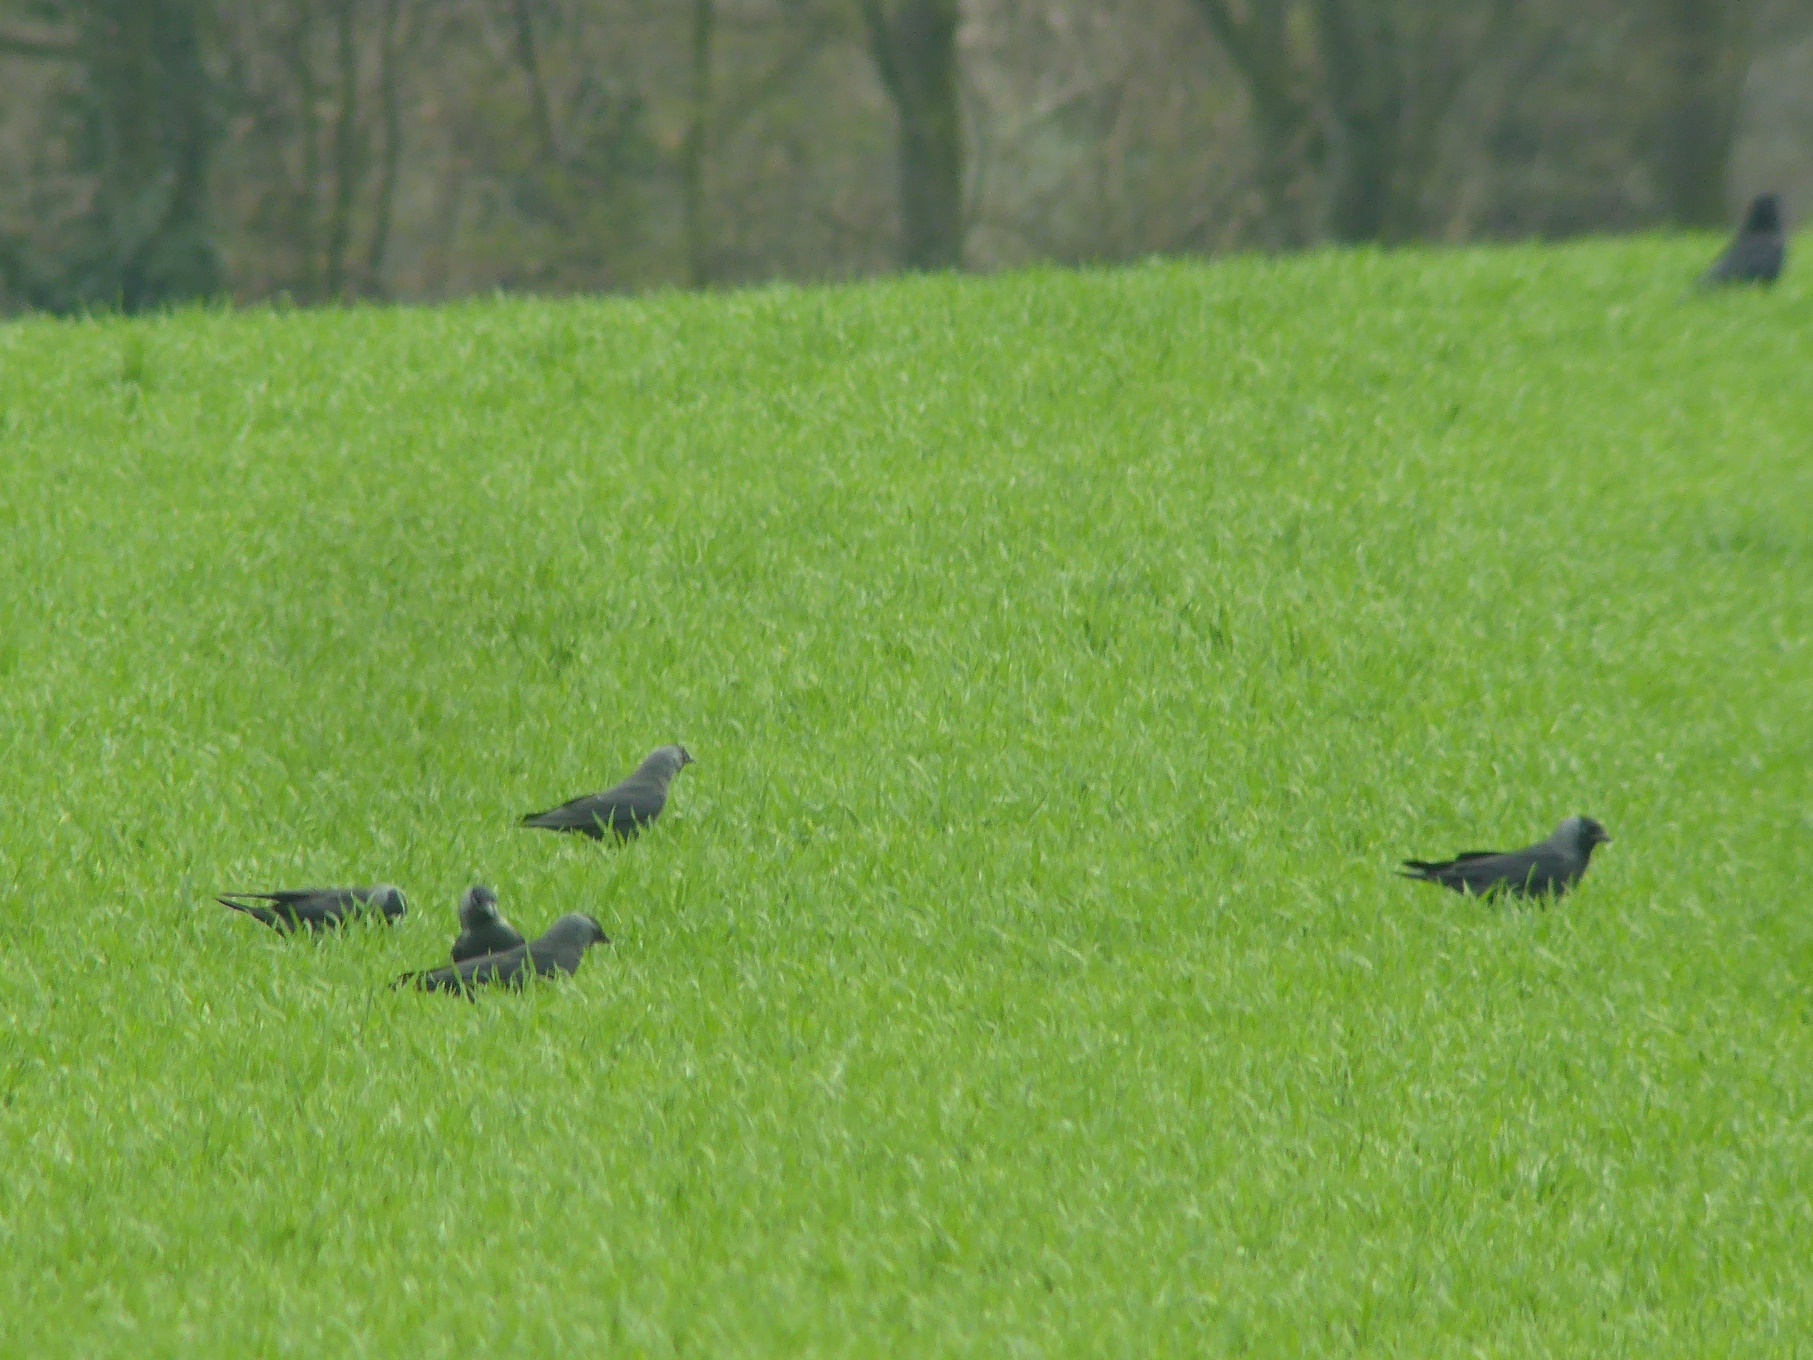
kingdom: Animalia
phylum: Chordata
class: Aves
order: Passeriformes
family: Corvidae
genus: Coloeus
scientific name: Coloeus monedula
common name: Western jackdaw
